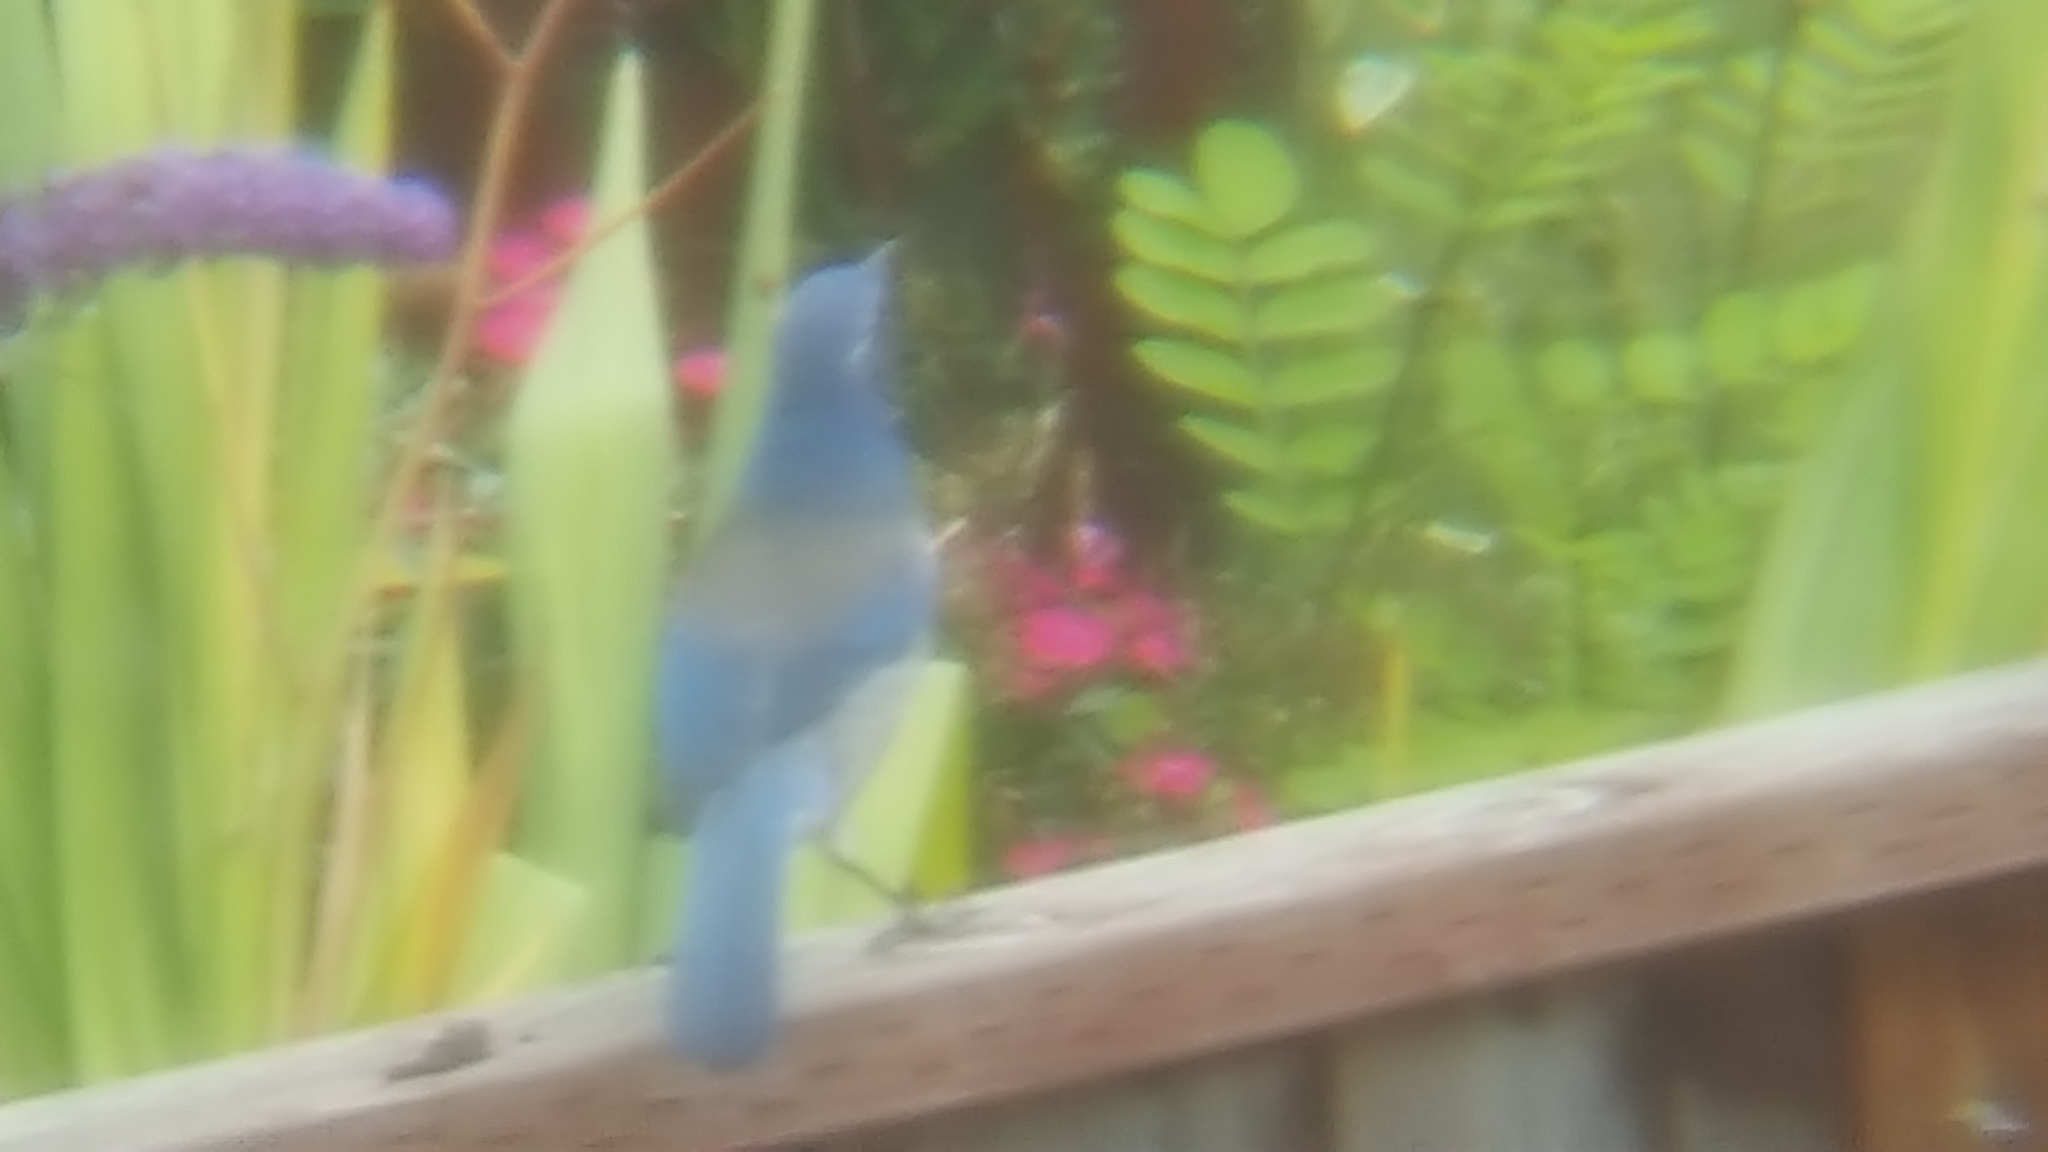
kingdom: Animalia
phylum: Chordata
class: Aves
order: Passeriformes
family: Corvidae
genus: Aphelocoma
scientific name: Aphelocoma californica
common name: California scrub-jay
